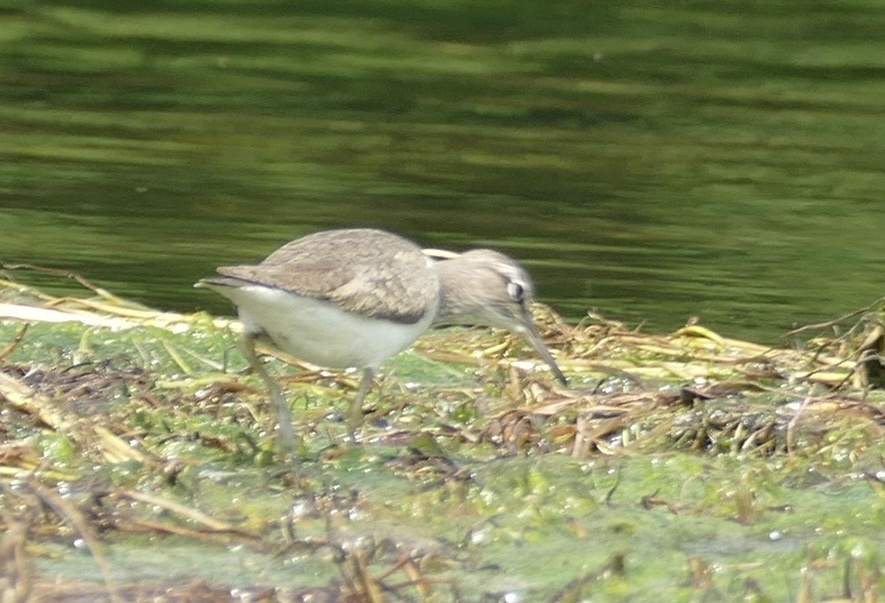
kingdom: Animalia
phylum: Chordata
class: Aves
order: Charadriiformes
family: Scolopacidae
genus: Actitis
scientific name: Actitis hypoleucos
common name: Common sandpiper
